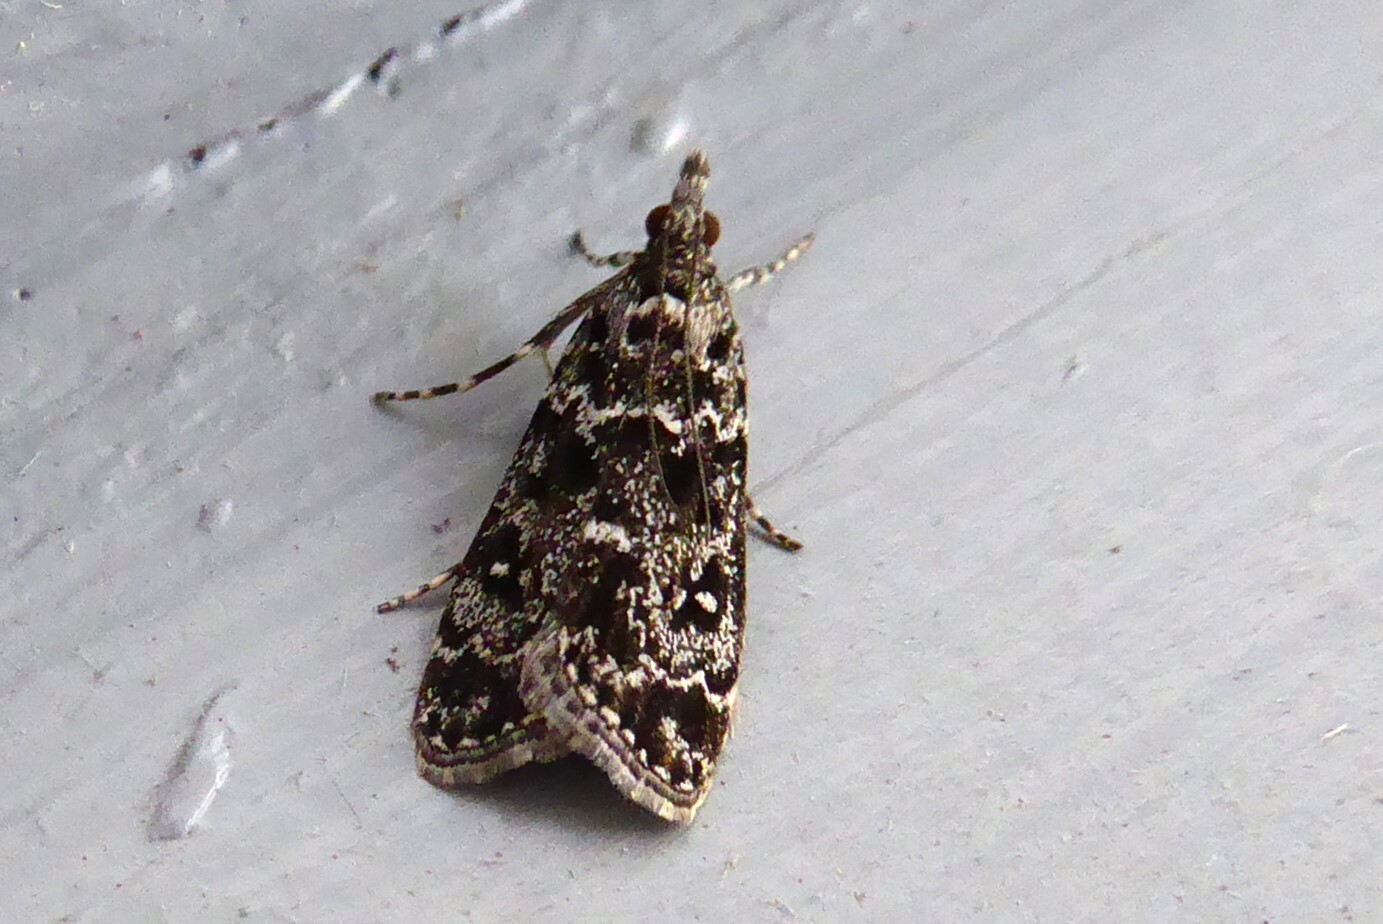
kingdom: Animalia
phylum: Arthropoda
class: Insecta
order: Lepidoptera
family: Crambidae
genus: Eudonia
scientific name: Eudonia philerga
